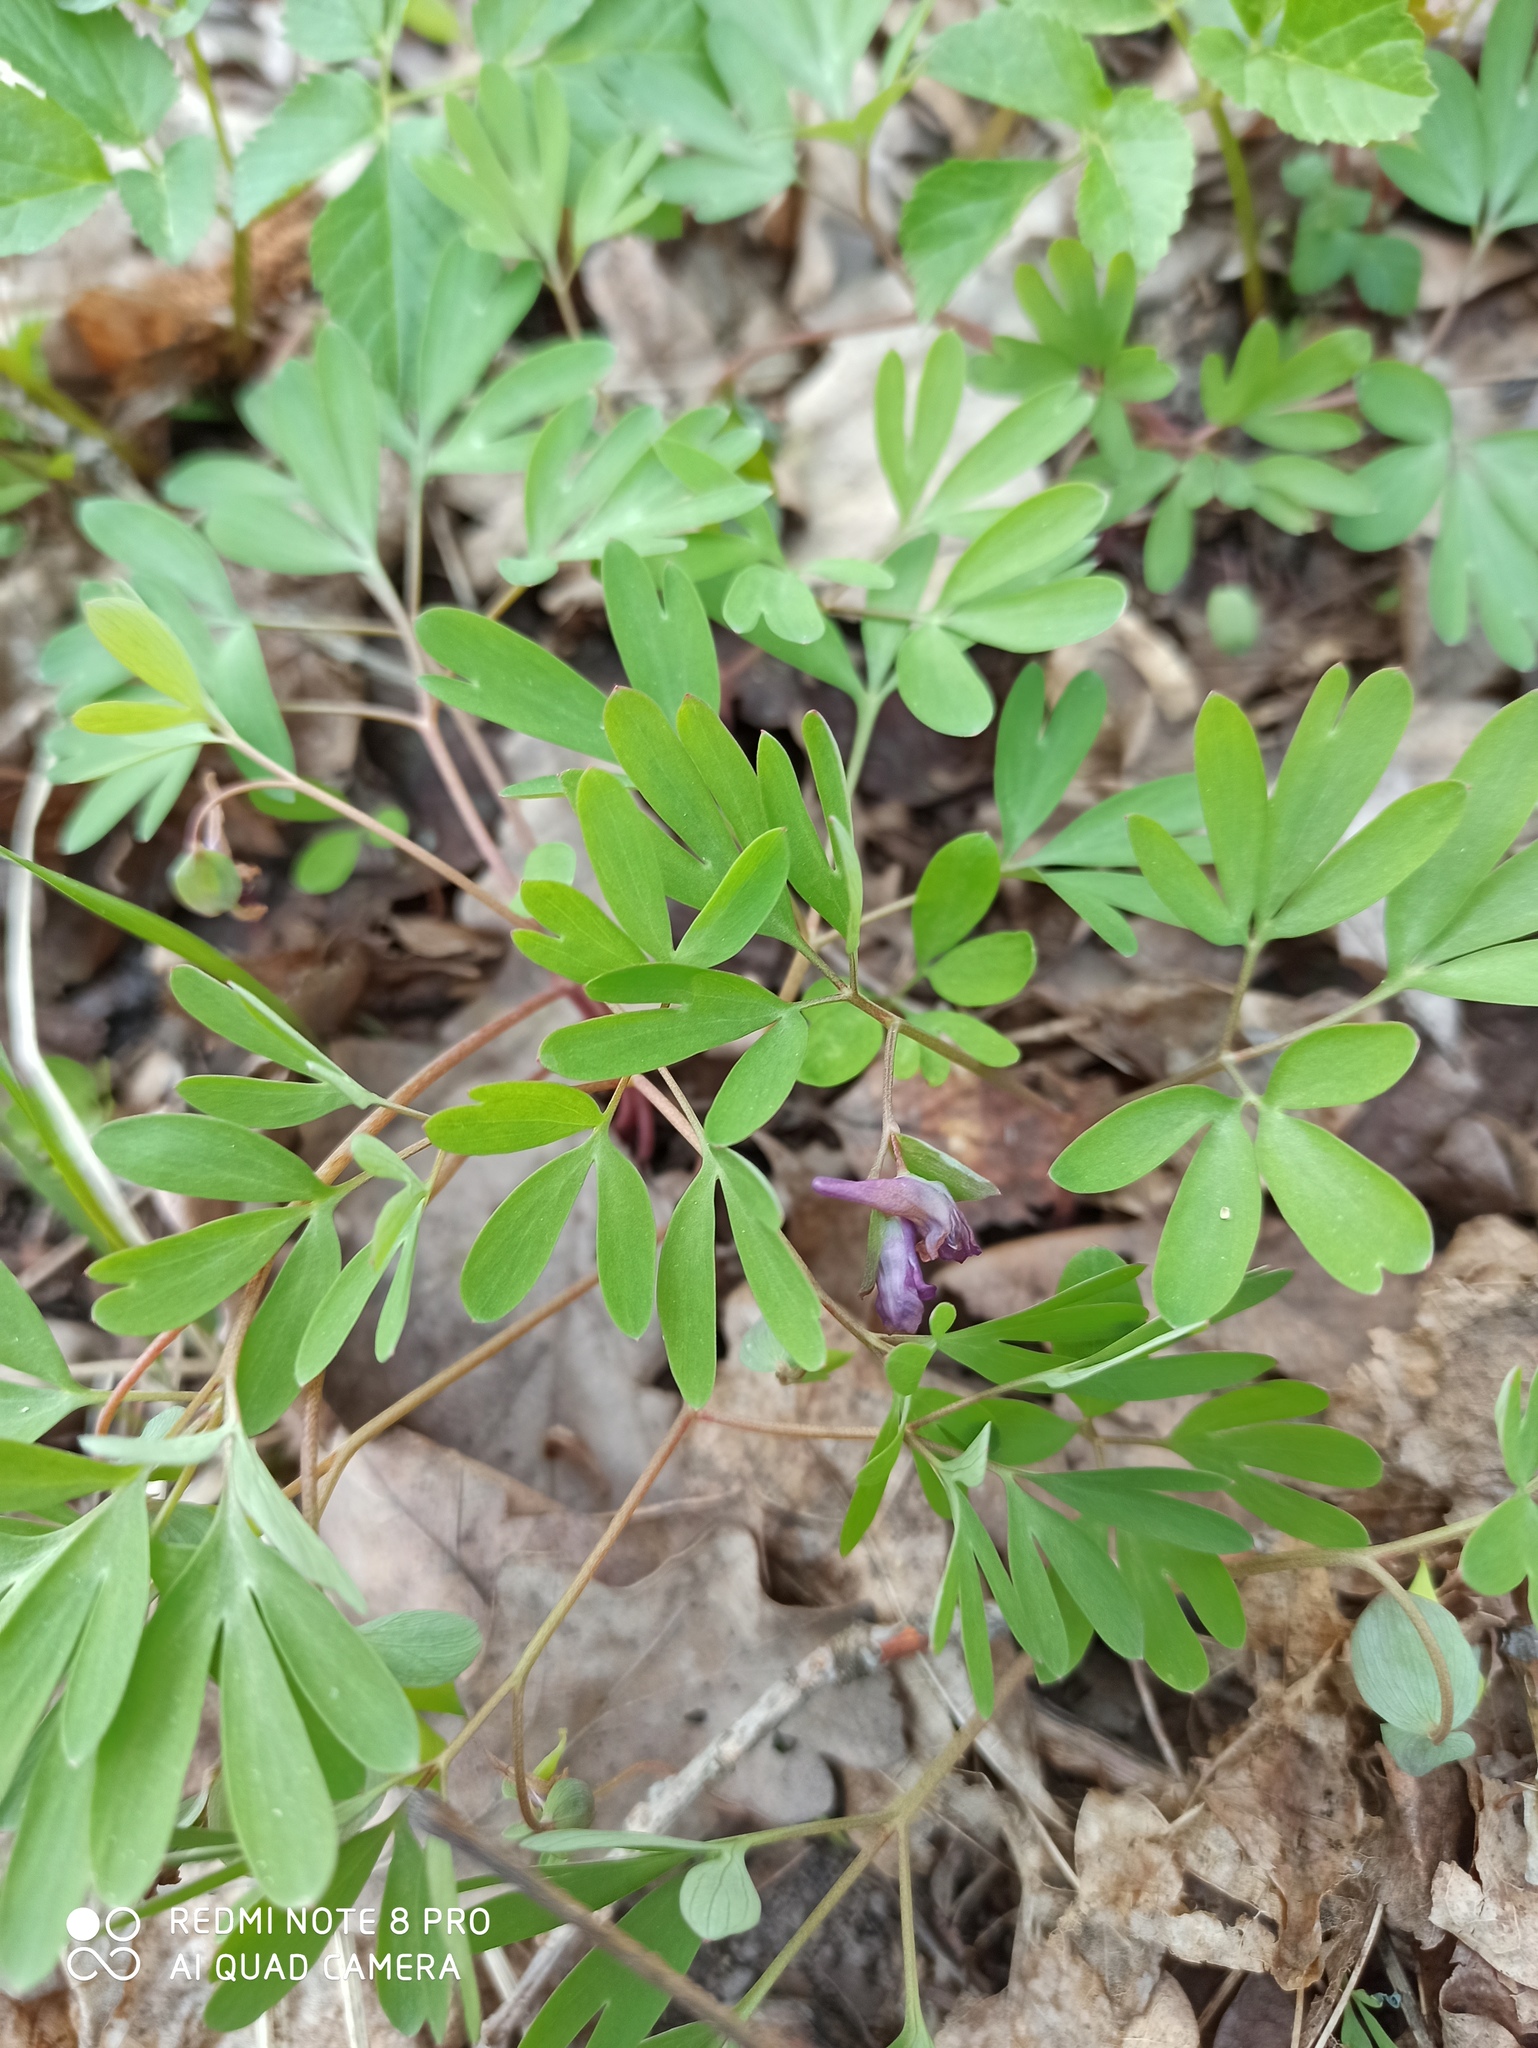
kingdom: Plantae
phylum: Tracheophyta
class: Magnoliopsida
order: Ranunculales
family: Papaveraceae
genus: Corydalis
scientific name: Corydalis intermedia
